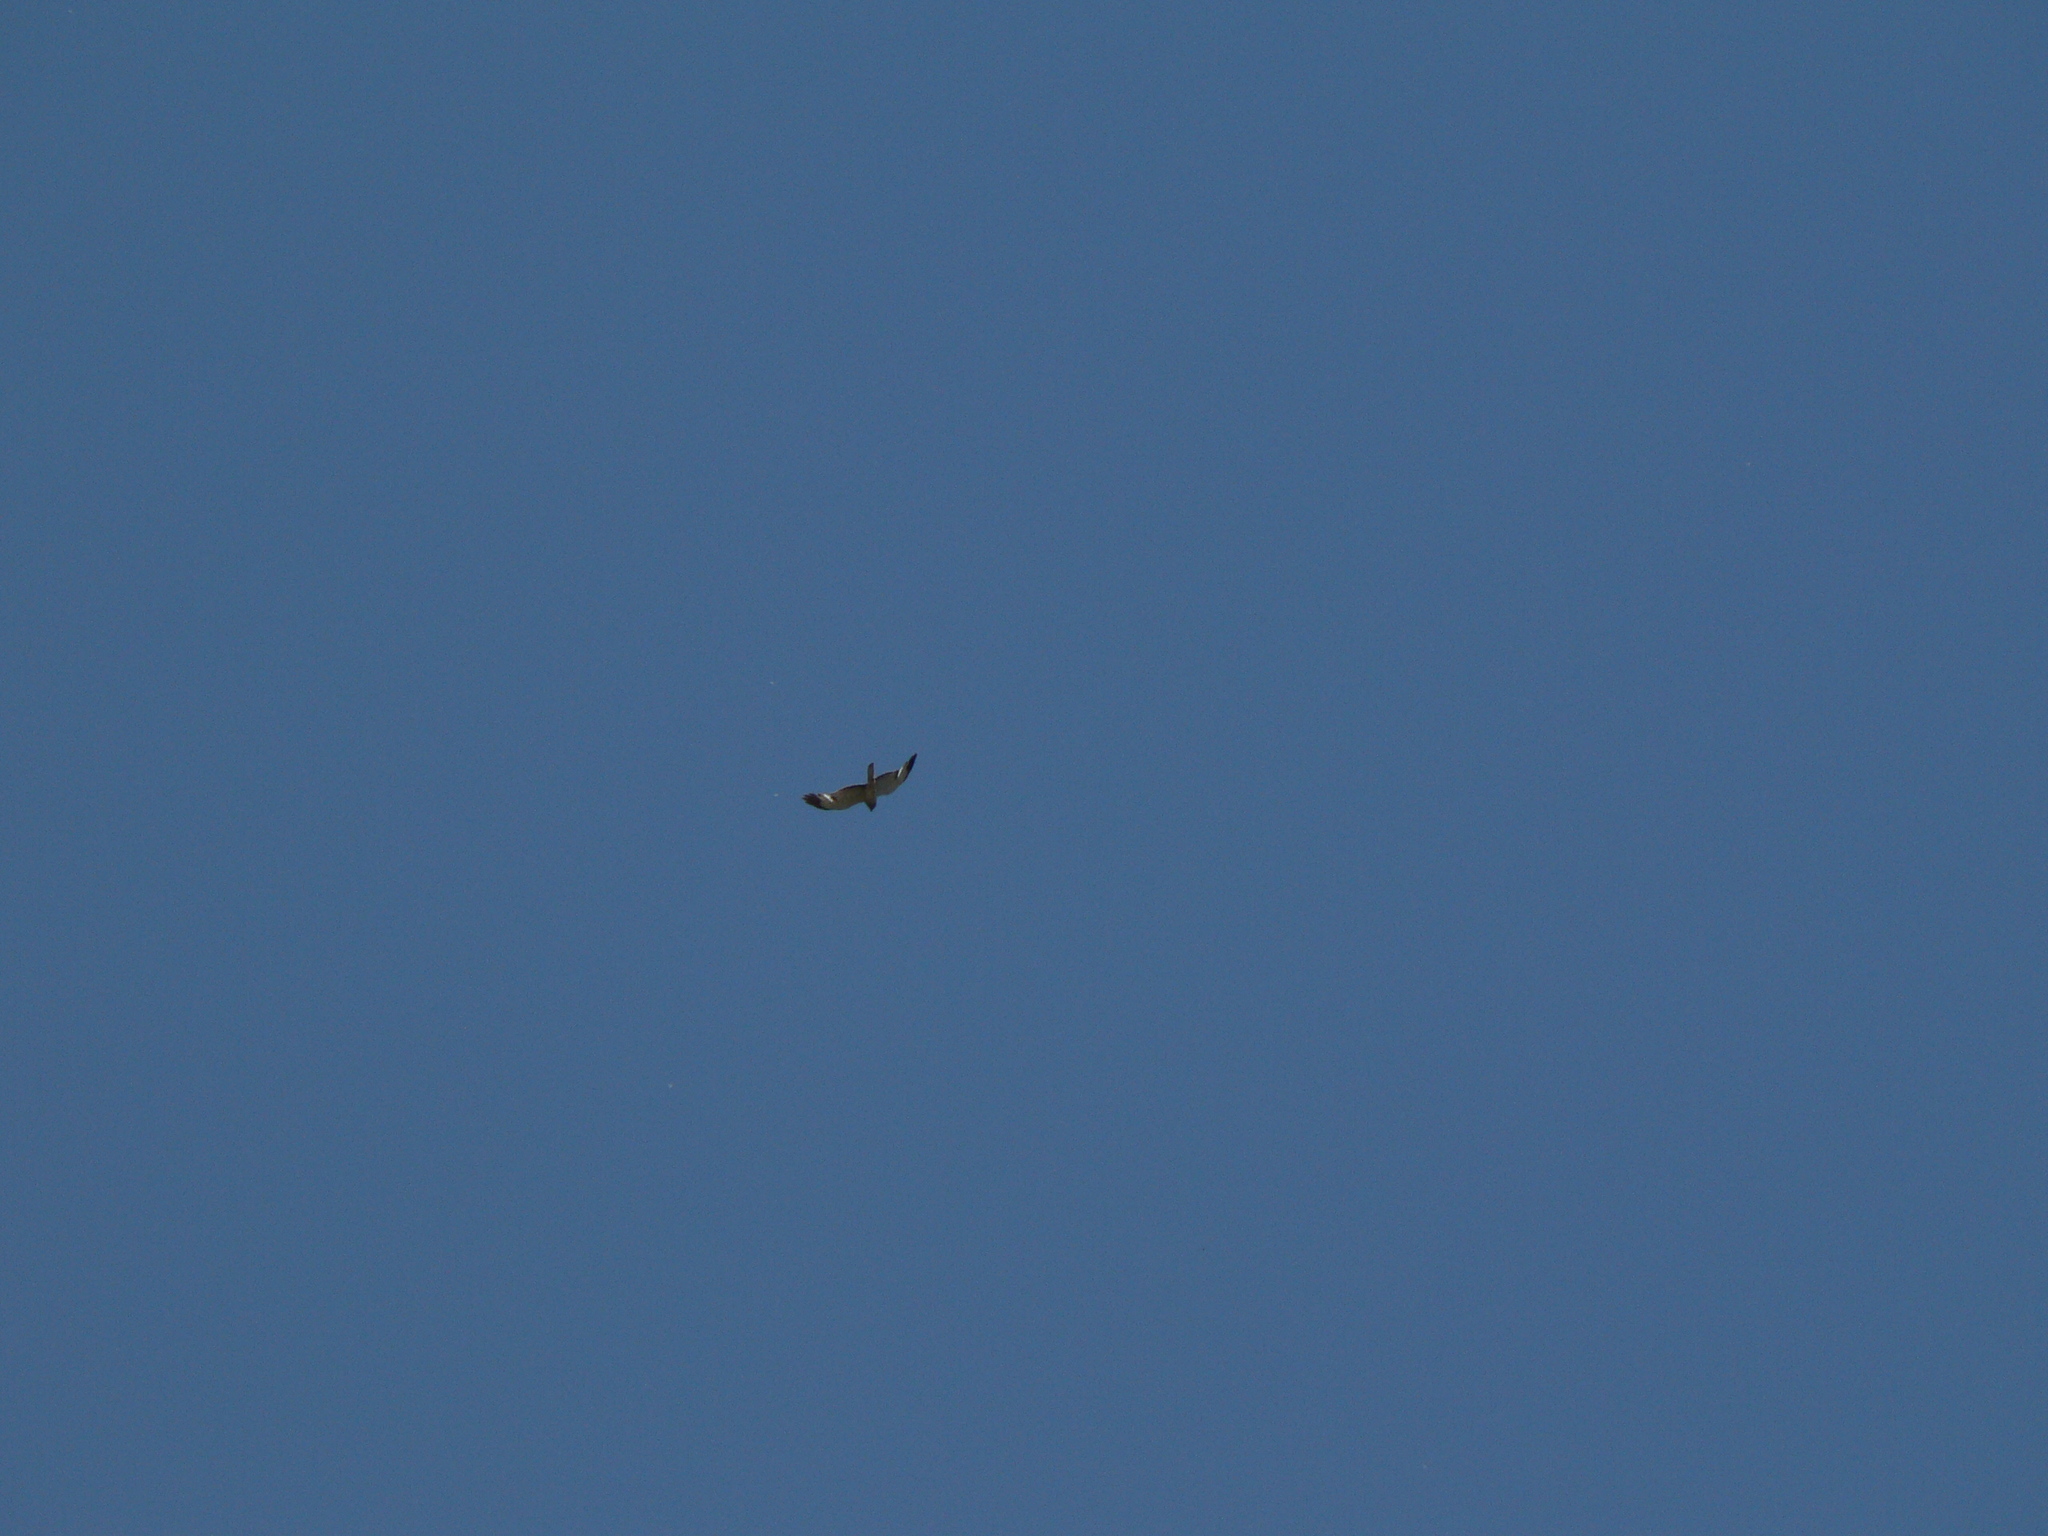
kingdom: Animalia
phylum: Chordata
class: Aves
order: Accipitriformes
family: Accipitridae
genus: Circus
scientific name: Circus cyaneus
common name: Hen harrier
